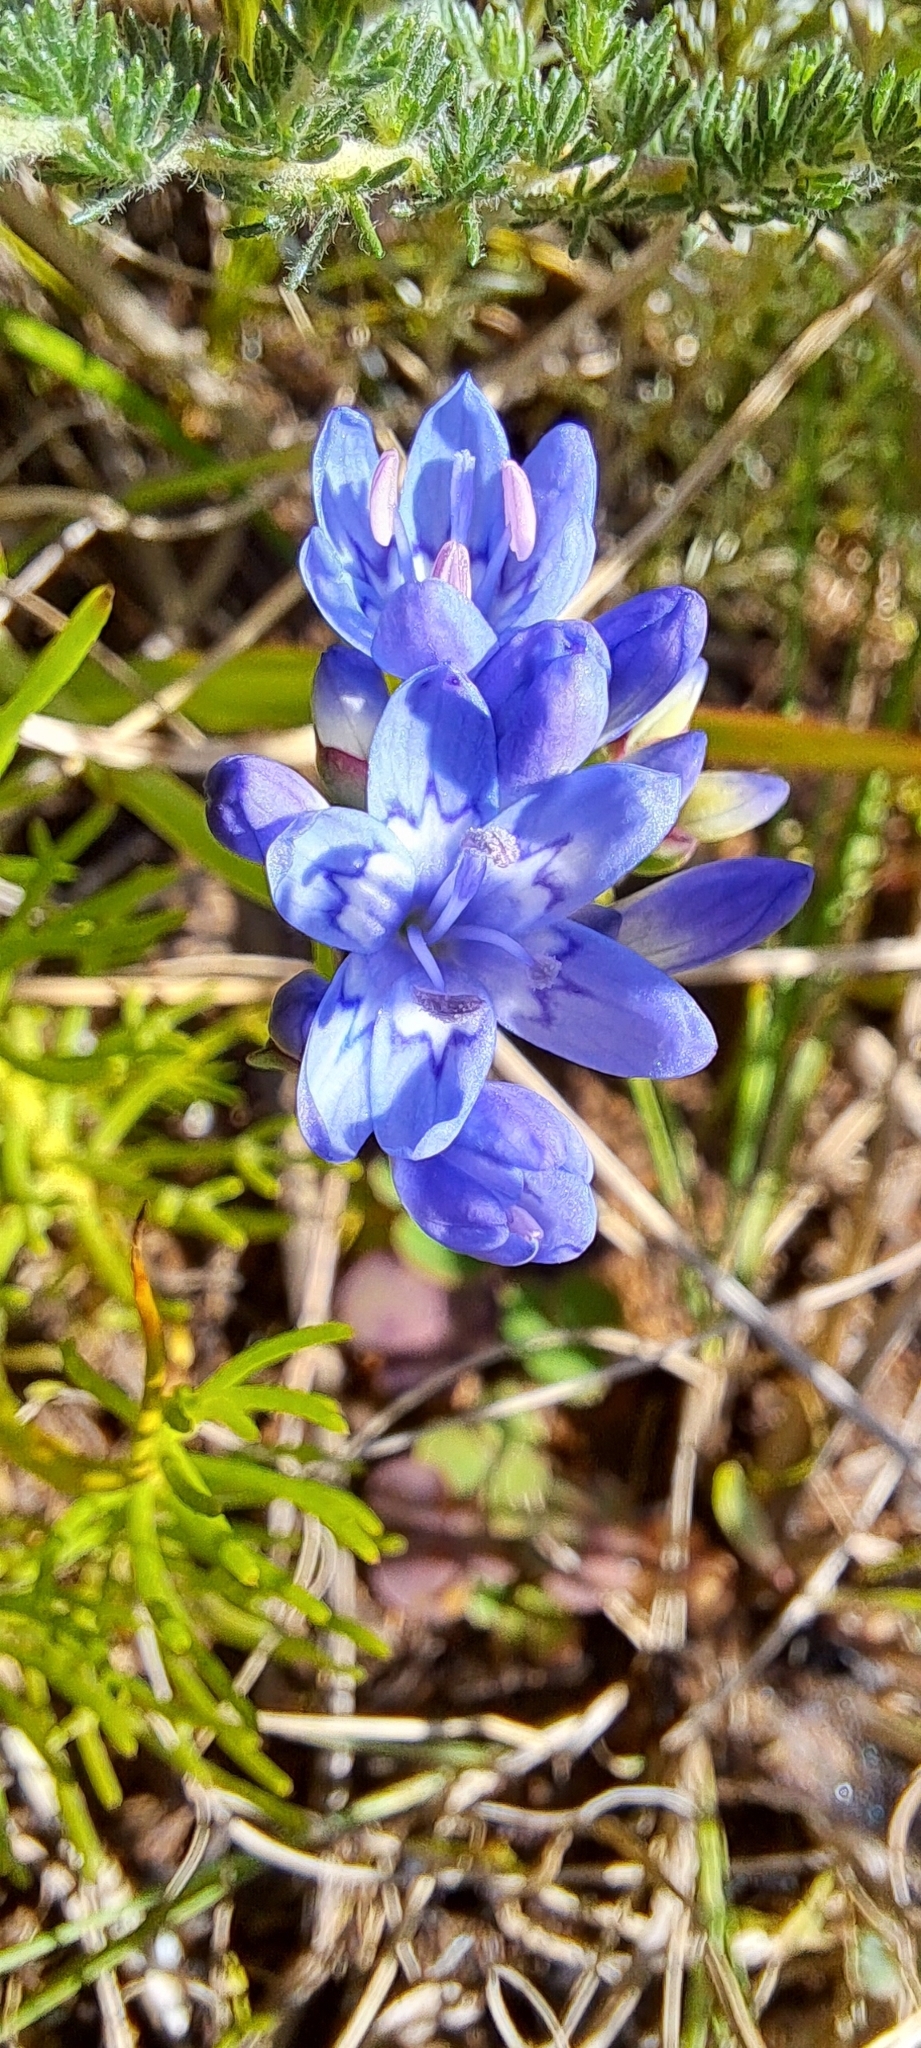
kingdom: Plantae
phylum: Tracheophyta
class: Liliopsida
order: Asparagales
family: Iridaceae
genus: Codonorhiza
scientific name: Codonorhiza corymbosa
